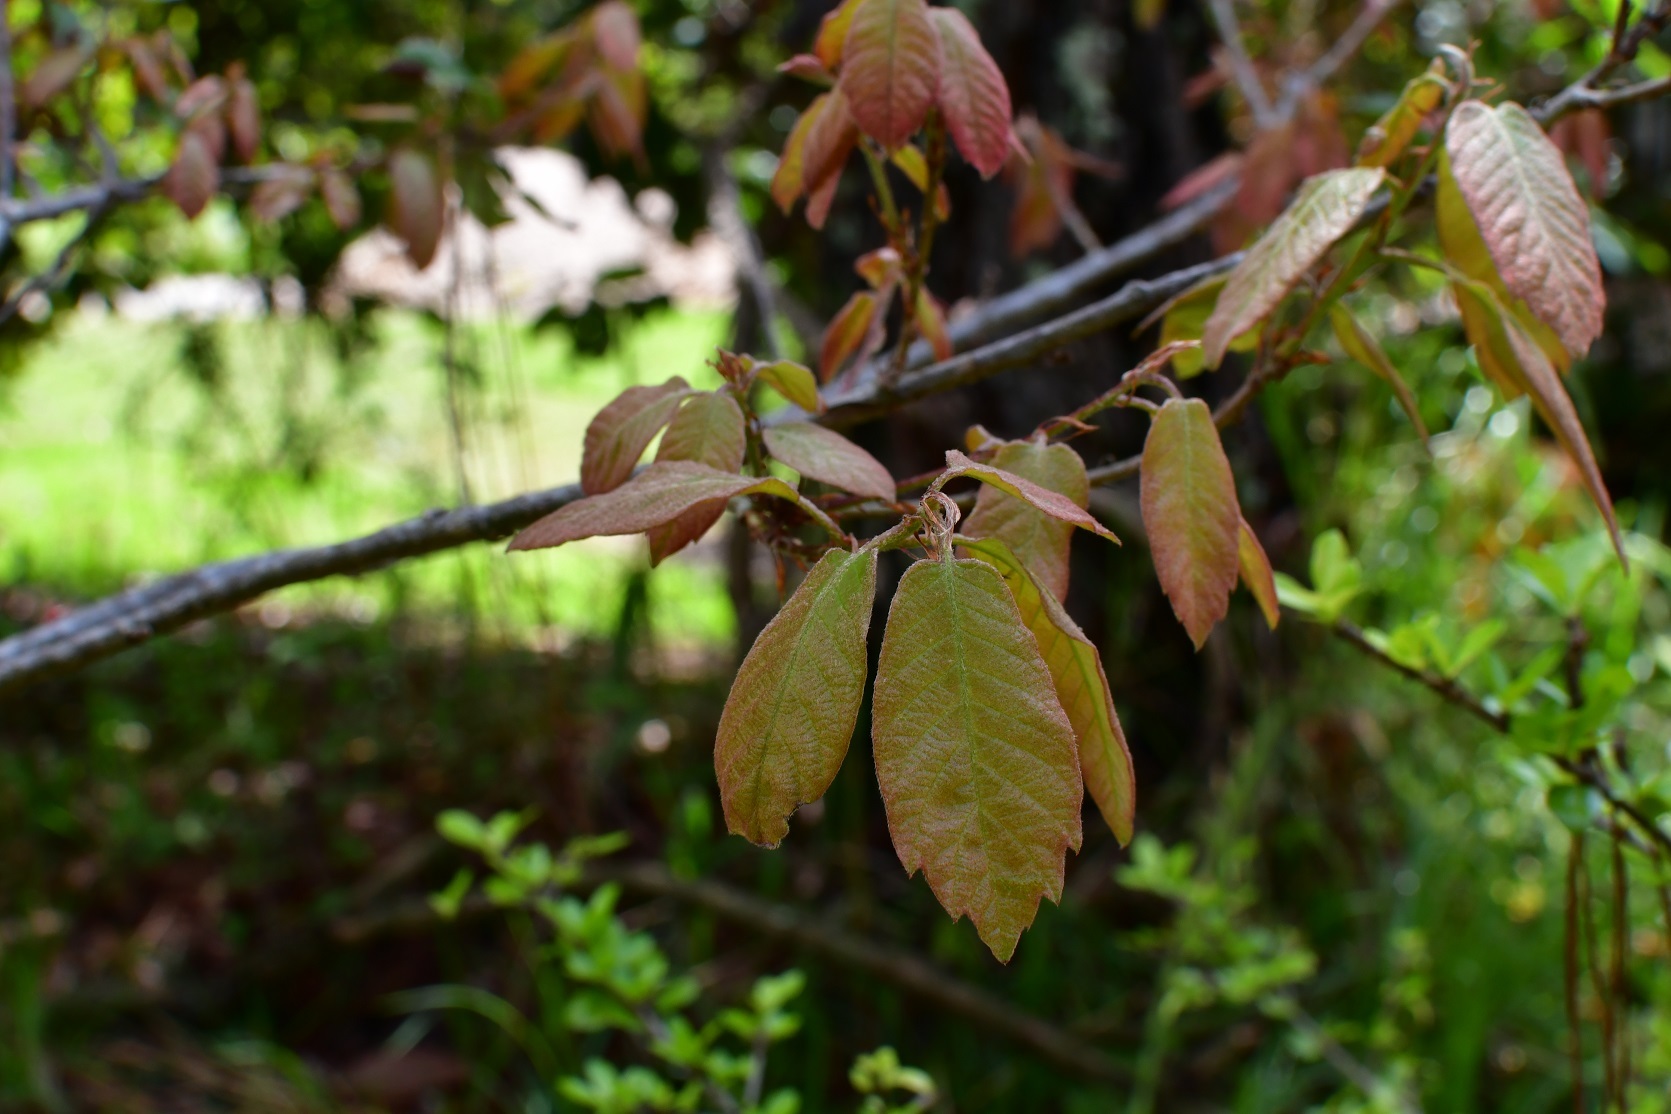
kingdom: Plantae
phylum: Tracheophyta
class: Magnoliopsida
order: Fagales
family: Fagaceae
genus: Quercus
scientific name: Quercus polymorpha
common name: Mexican white oak
